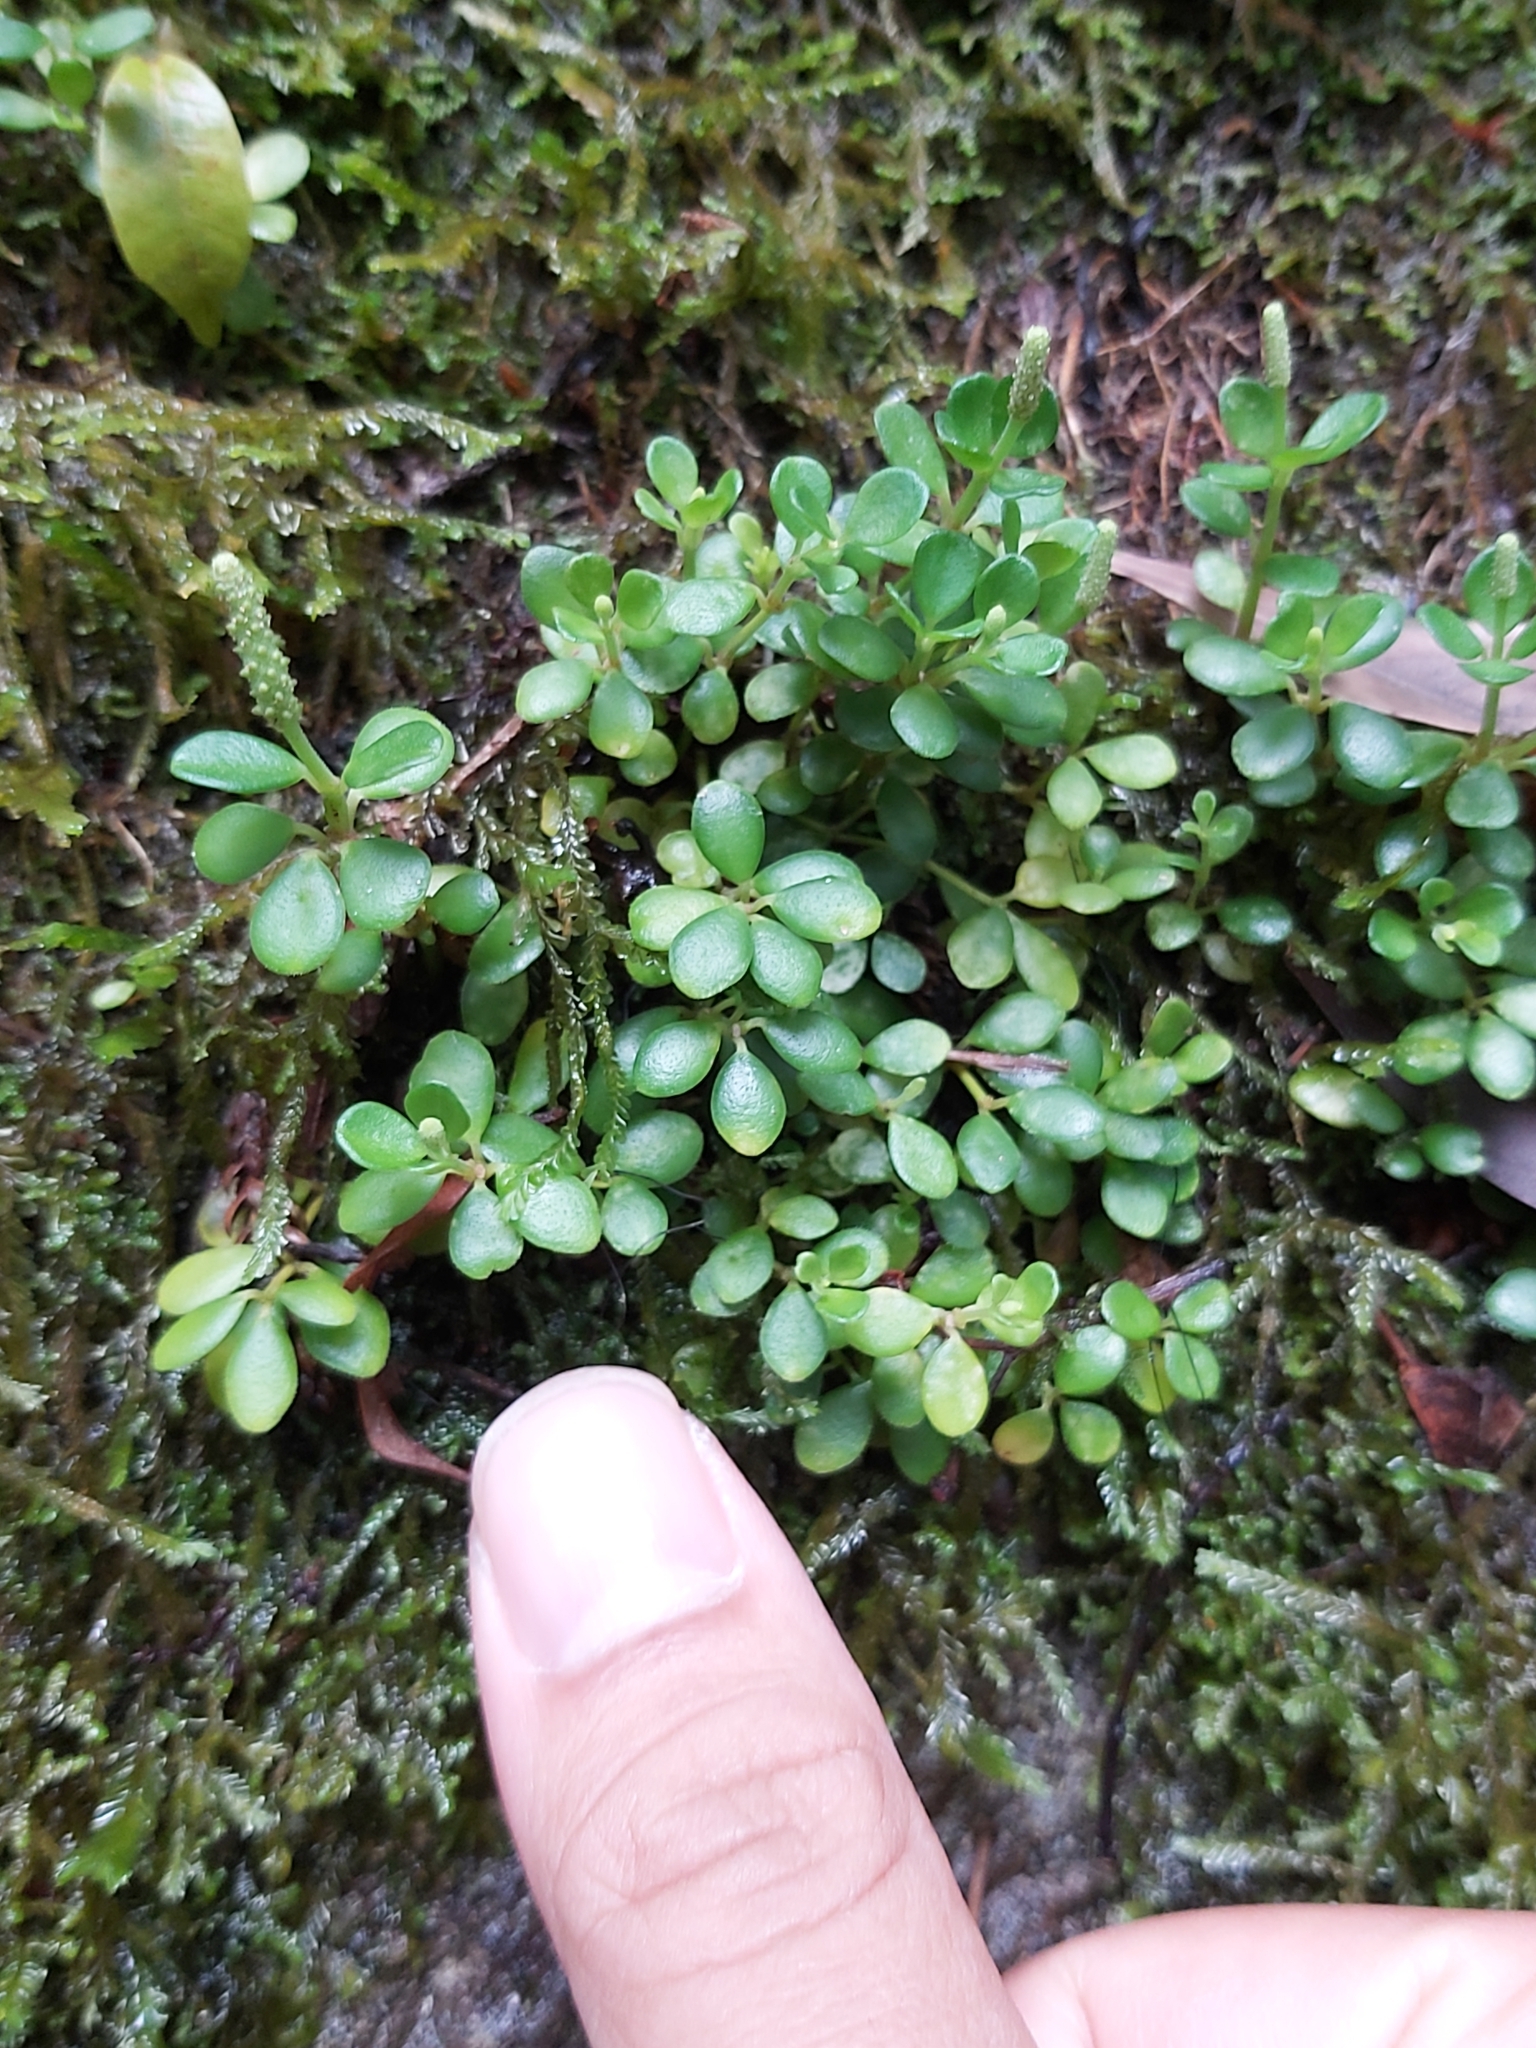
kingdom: Plantae
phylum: Tracheophyta
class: Magnoliopsida
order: Piperales
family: Piperaceae
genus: Peperomia
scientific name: Peperomia tetraphylla
